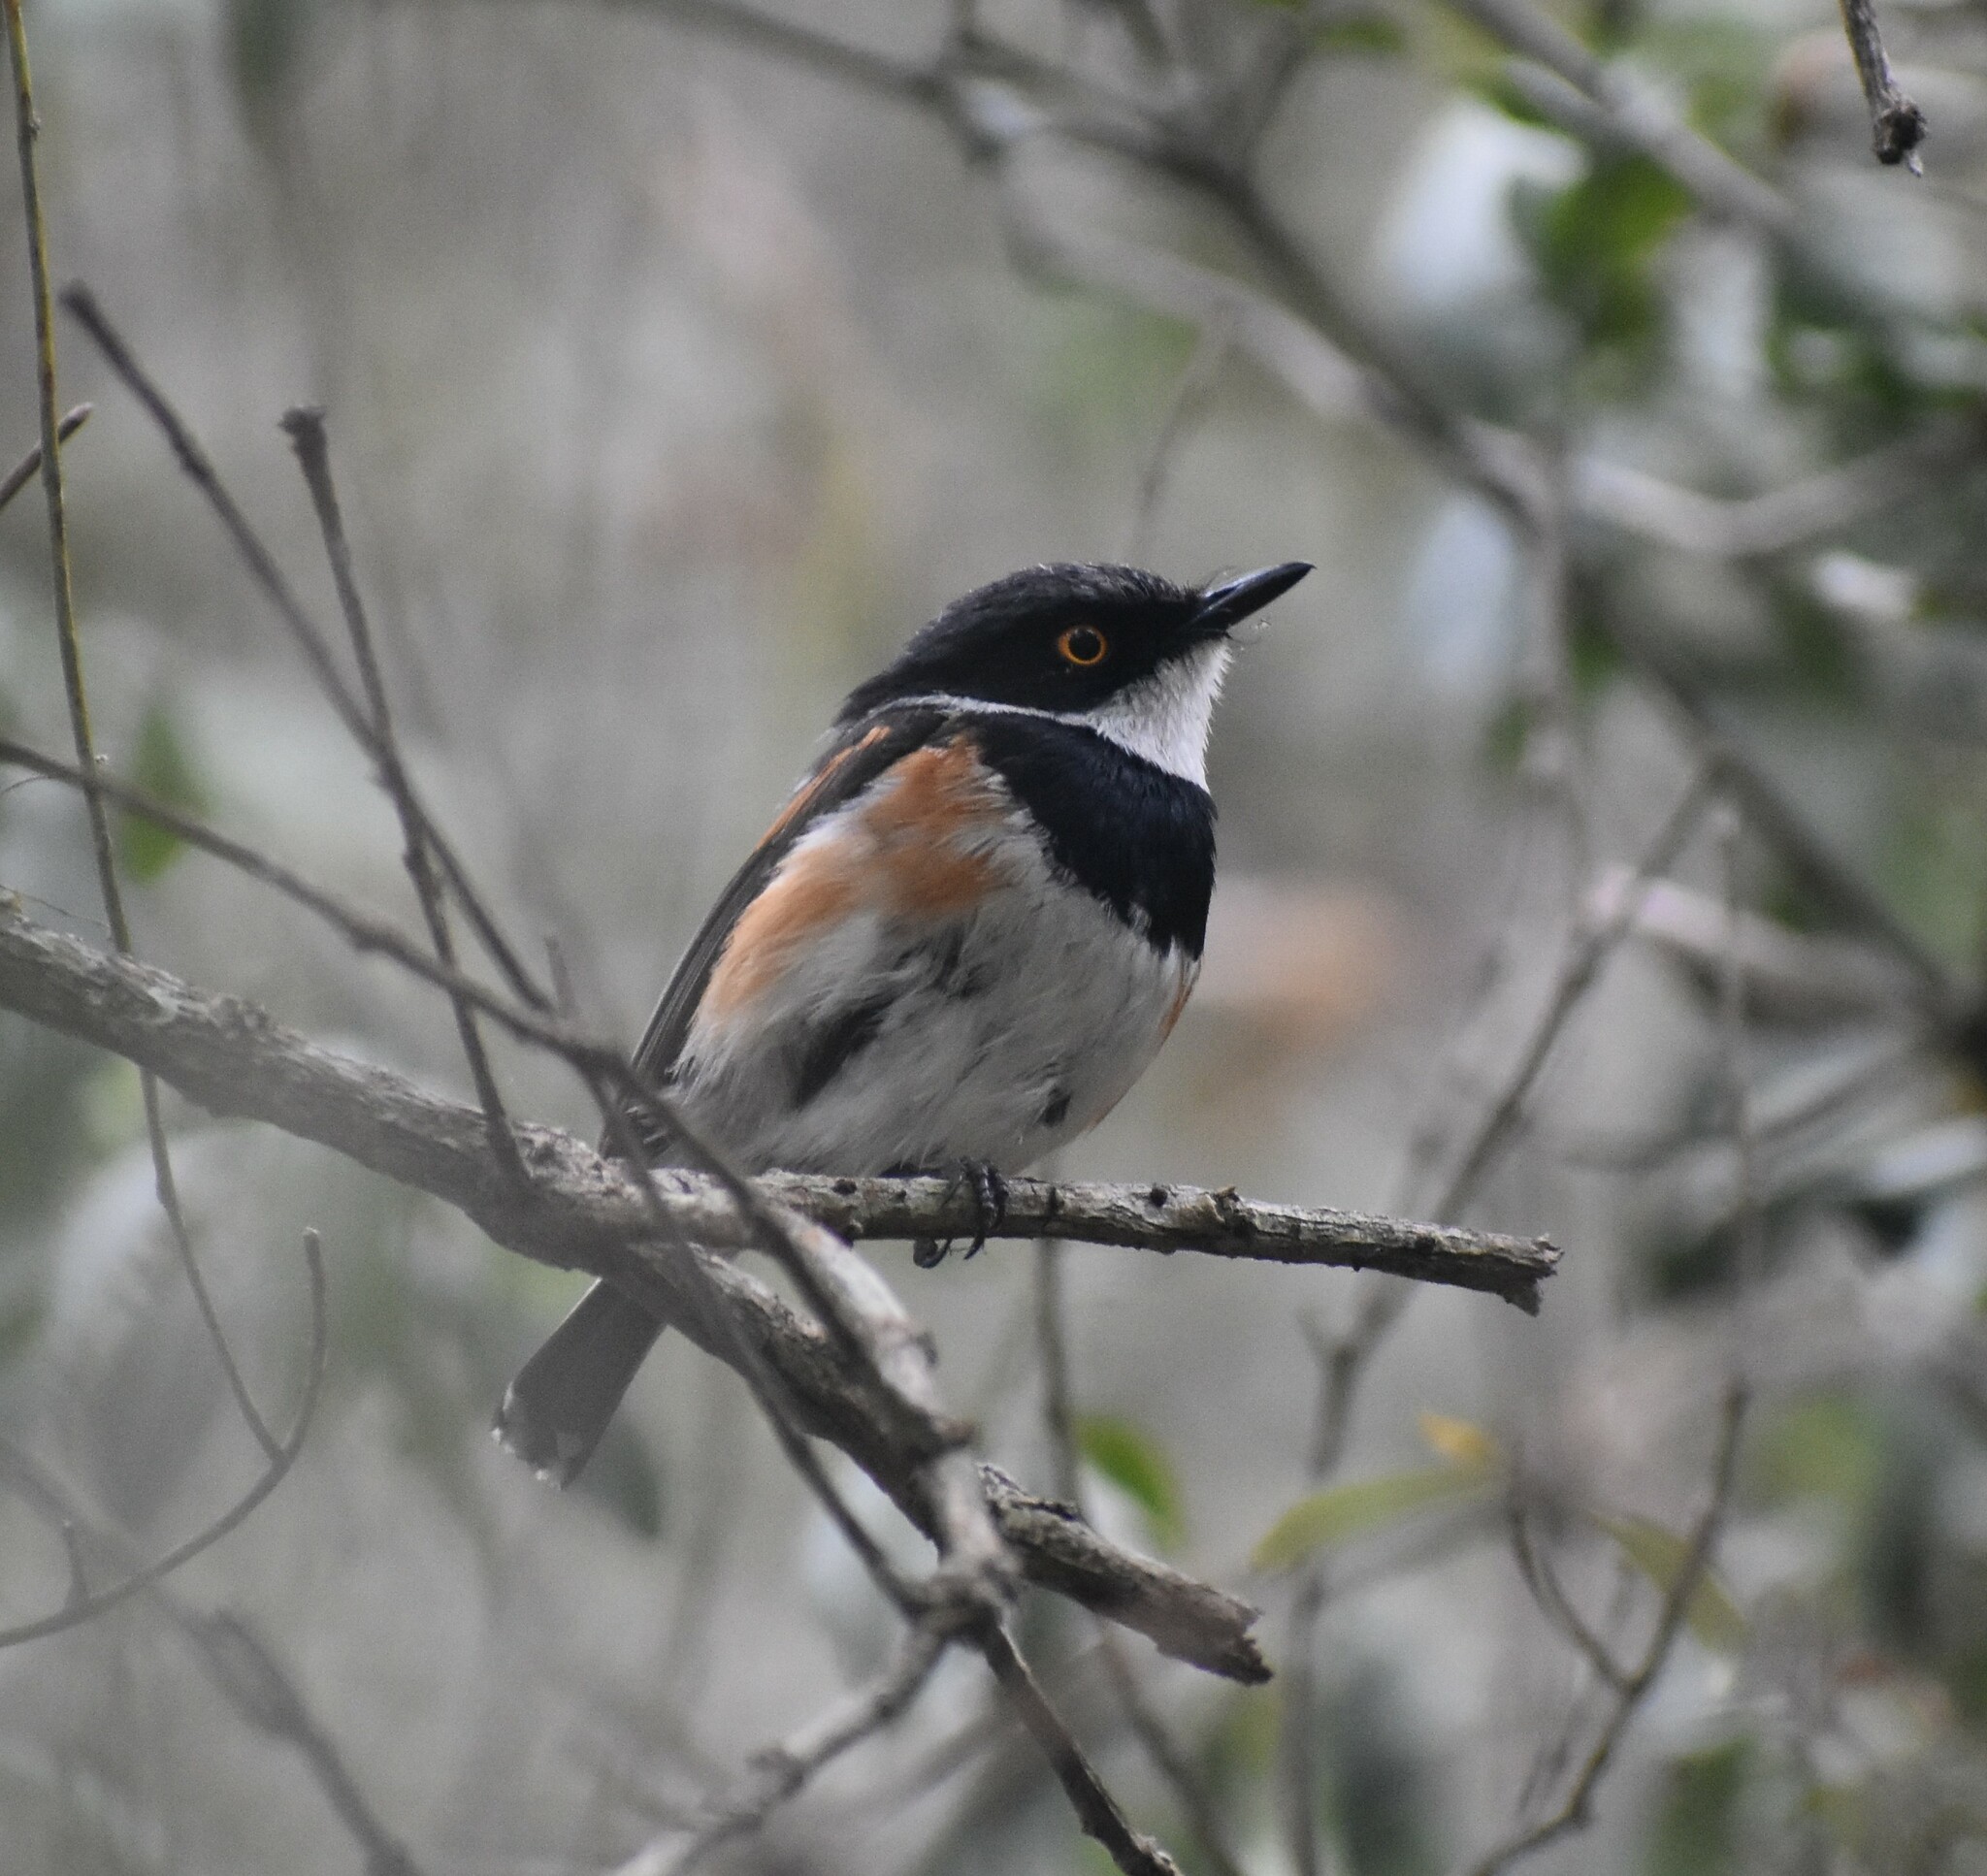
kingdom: Animalia
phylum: Chordata
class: Aves
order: Passeriformes
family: Platysteiridae
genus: Batis
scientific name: Batis capensis
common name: Cape batis
